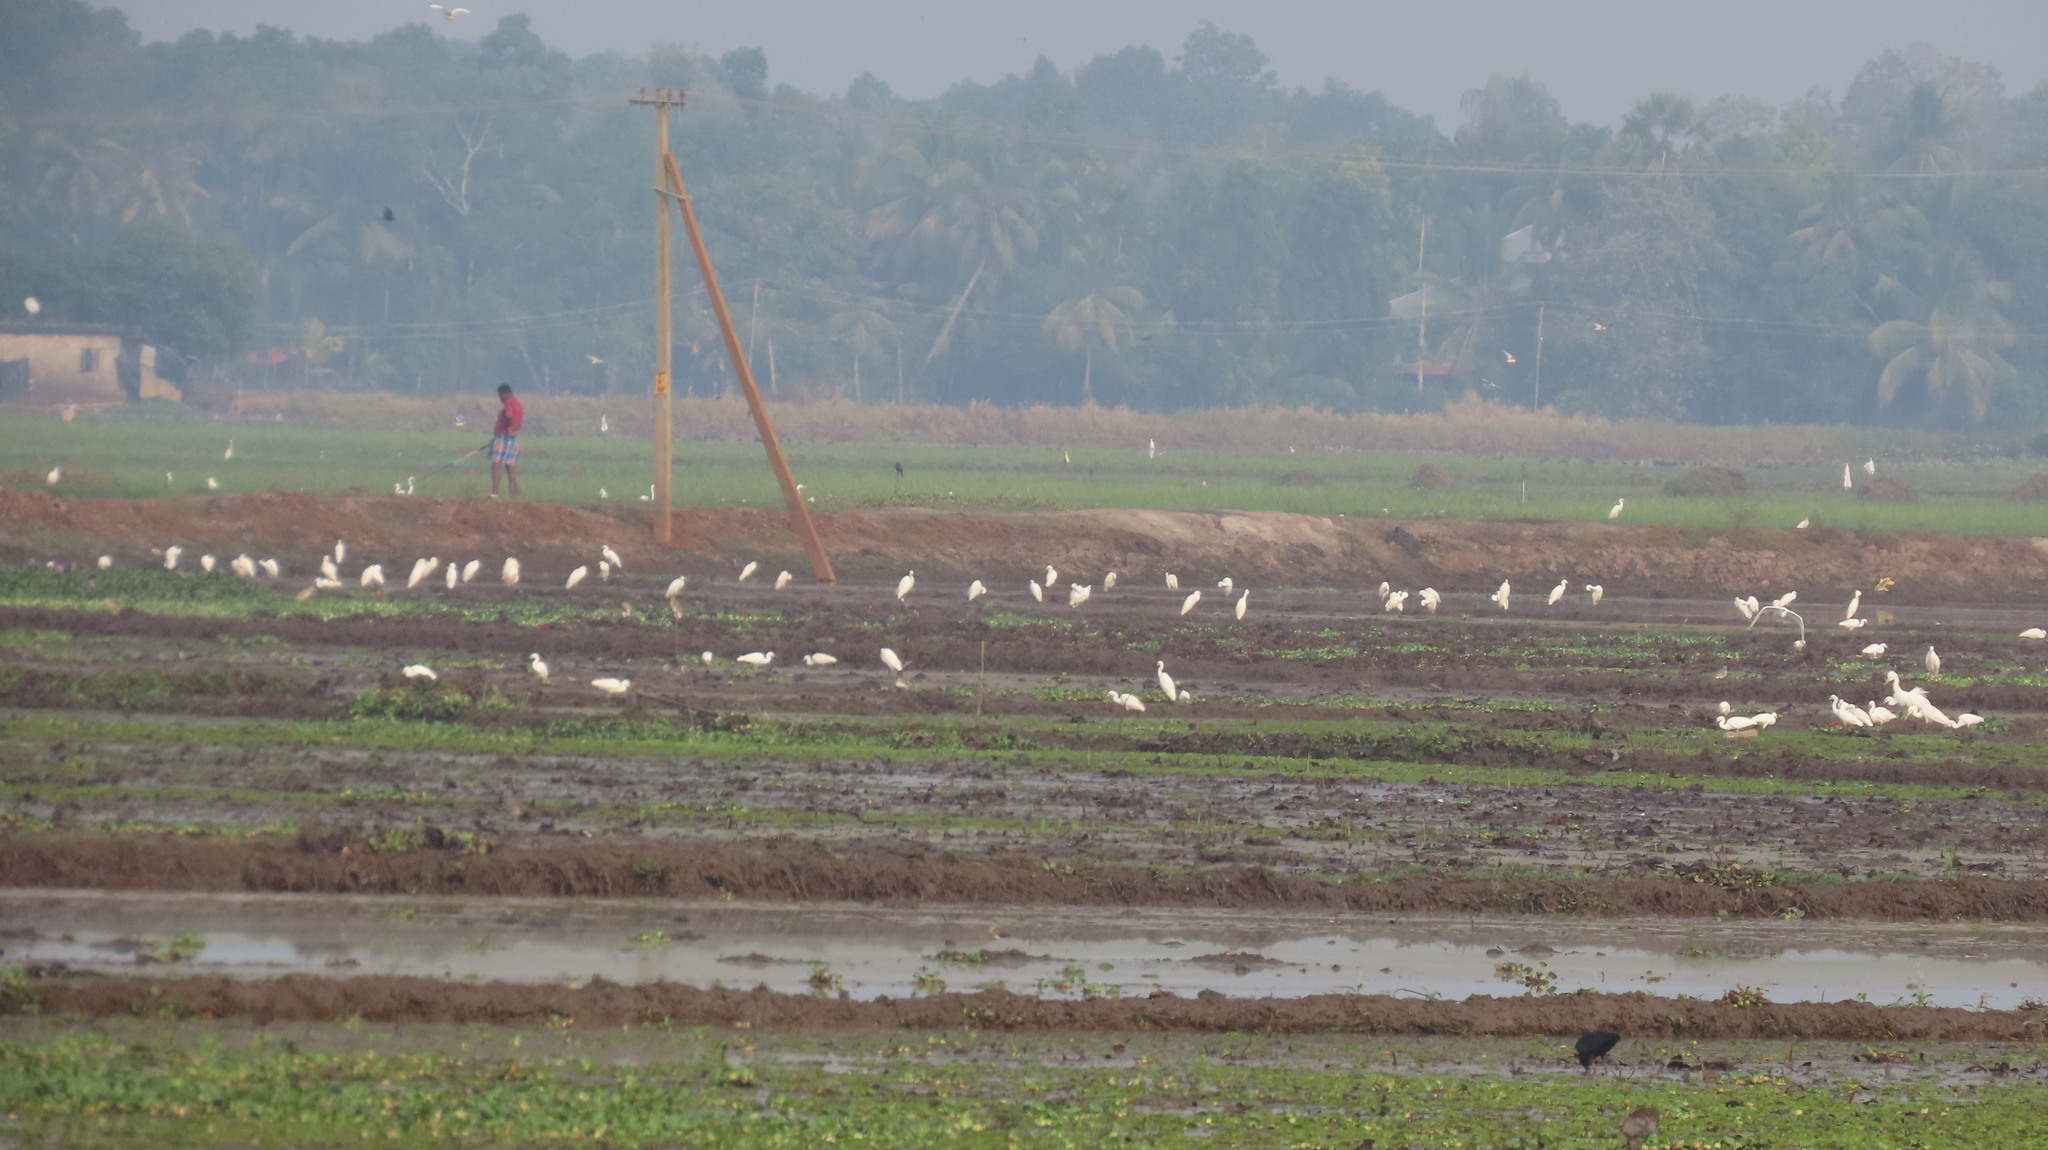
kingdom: Animalia
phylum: Chordata
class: Aves
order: Pelecaniformes
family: Ardeidae
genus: Egretta
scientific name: Egretta garzetta
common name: Little egret
